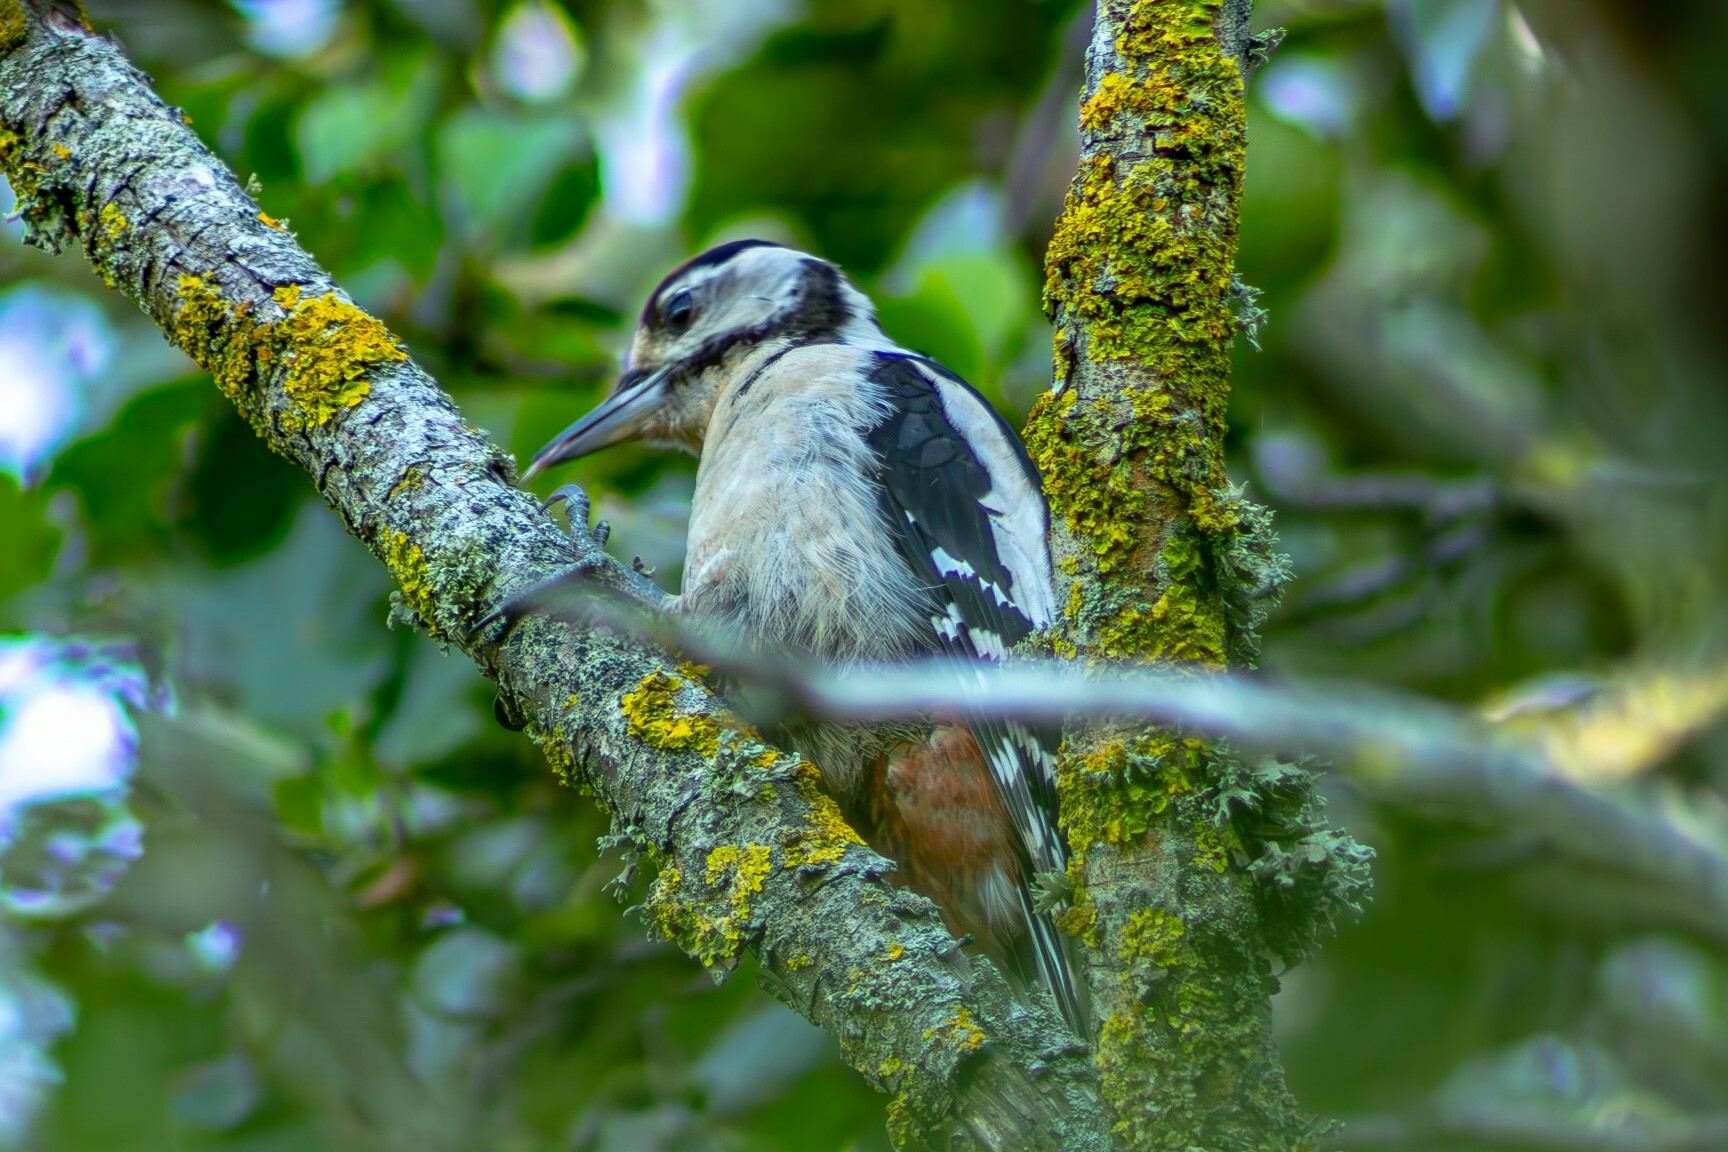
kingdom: Animalia
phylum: Chordata
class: Aves
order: Piciformes
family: Picidae
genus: Dendrocopos
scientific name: Dendrocopos major
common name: Great spotted woodpecker
